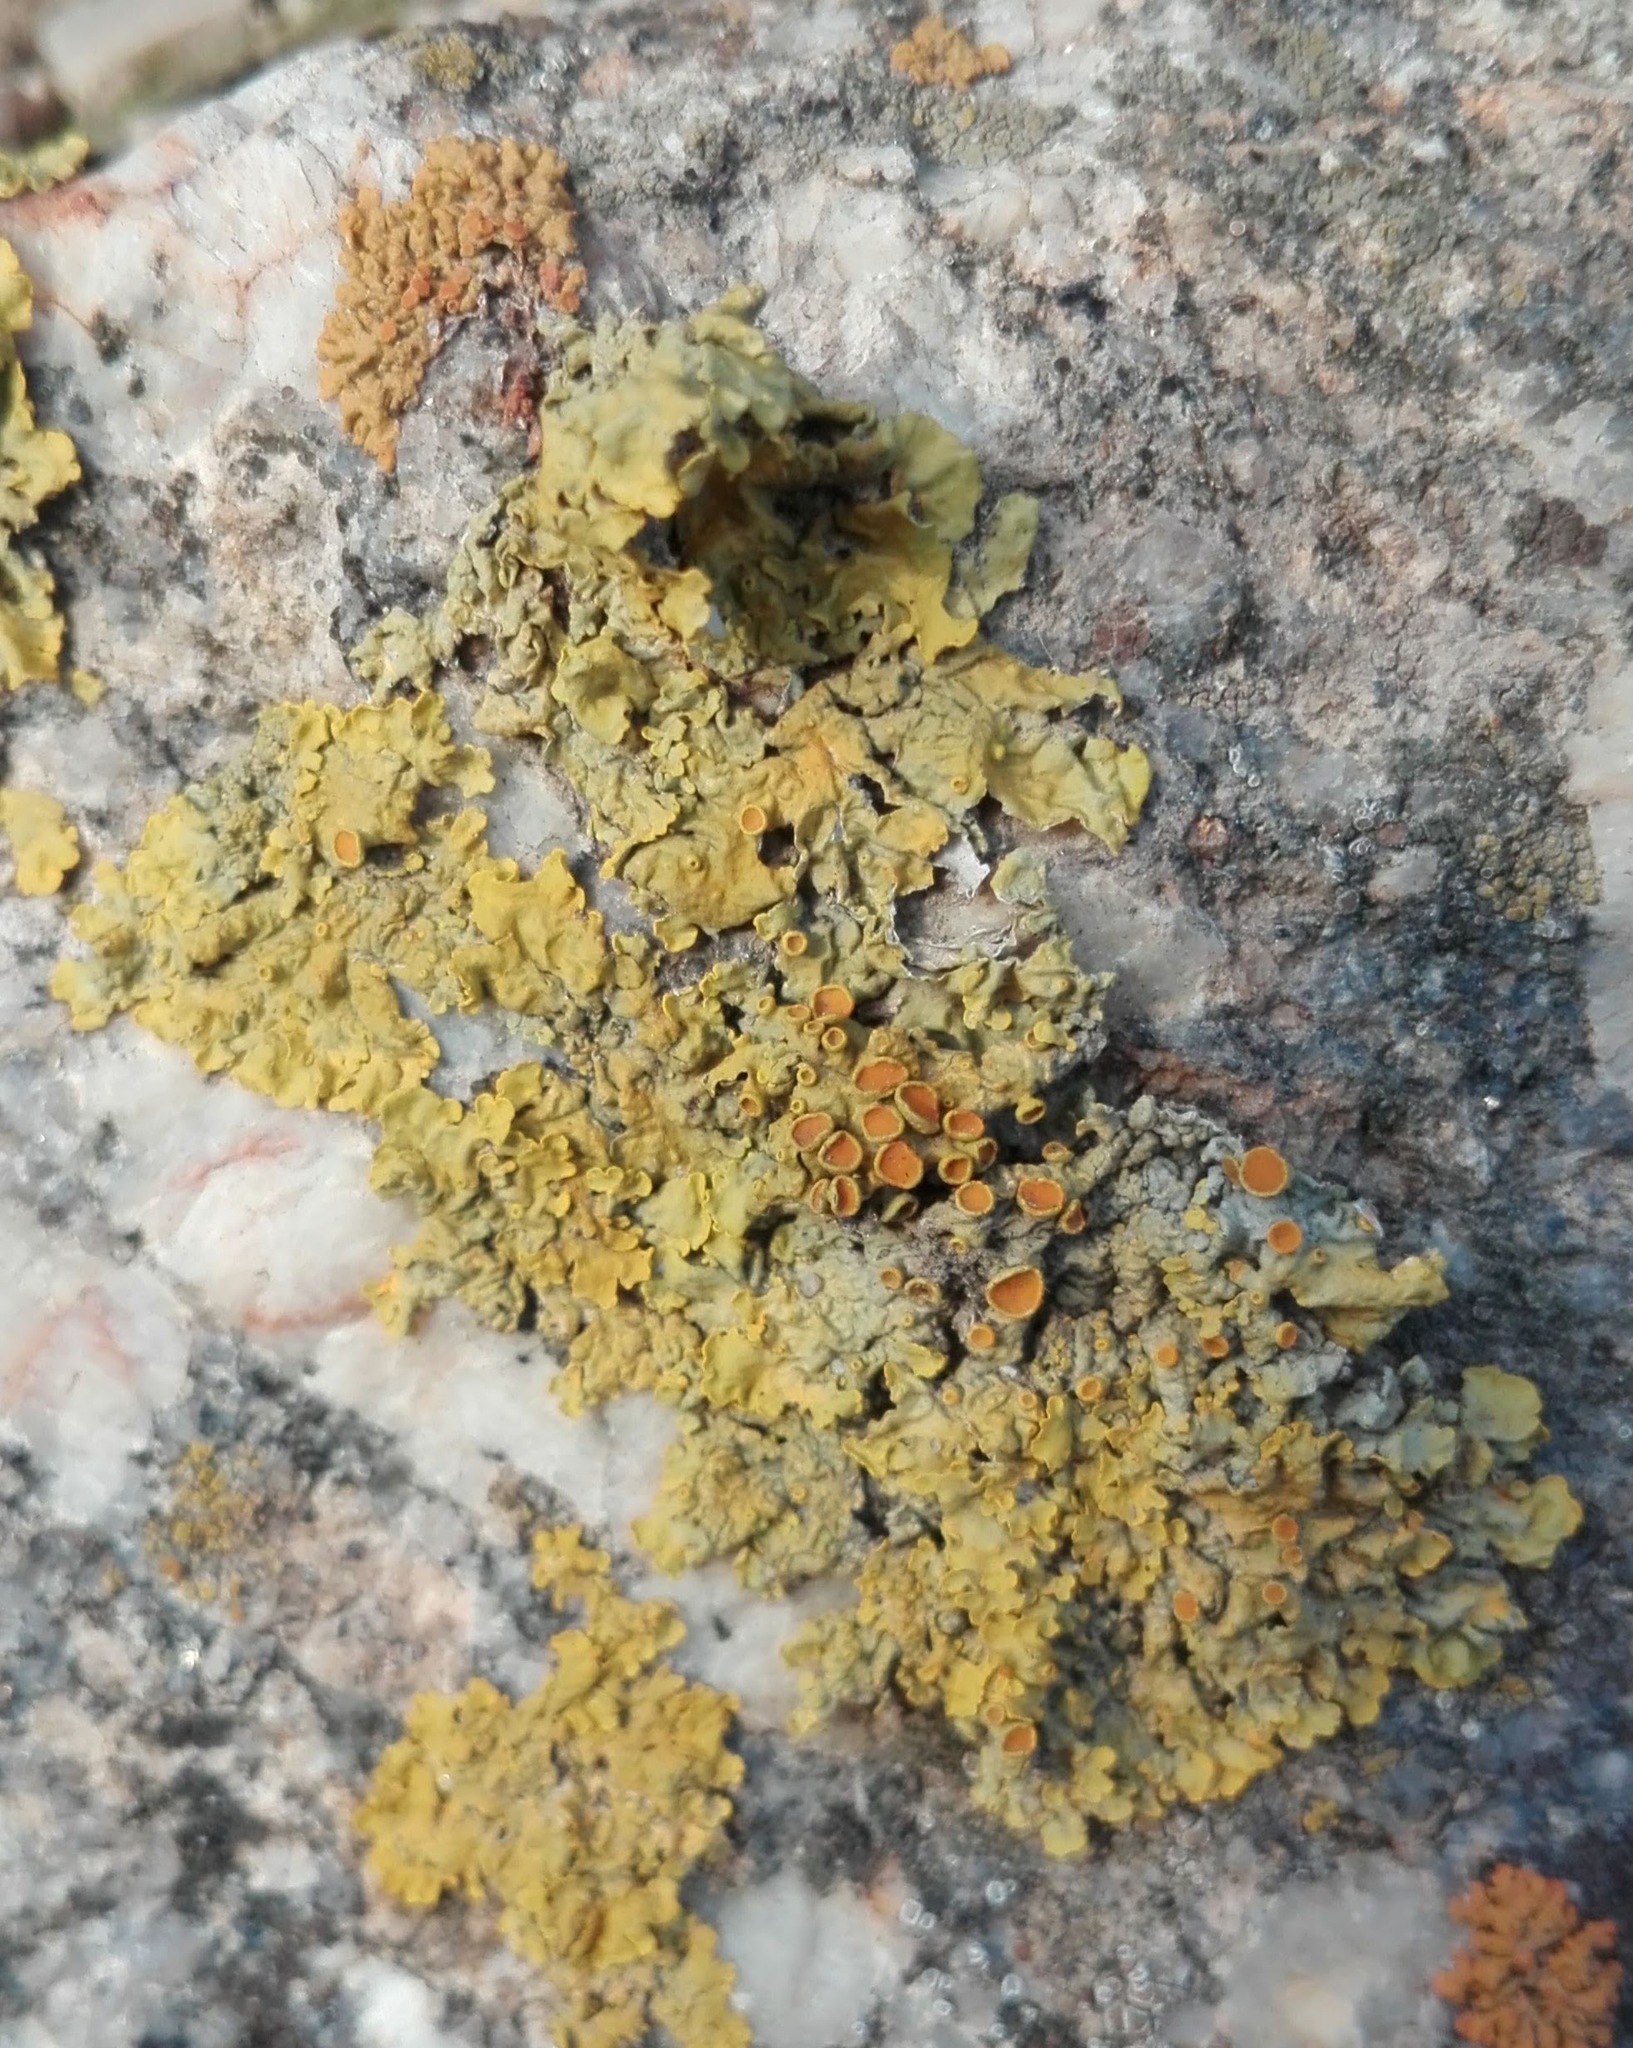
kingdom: Fungi
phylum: Ascomycota
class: Lecanoromycetes
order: Teloschistales
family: Teloschistaceae
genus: Xanthoria
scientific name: Xanthoria parietina
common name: Common orange lichen
